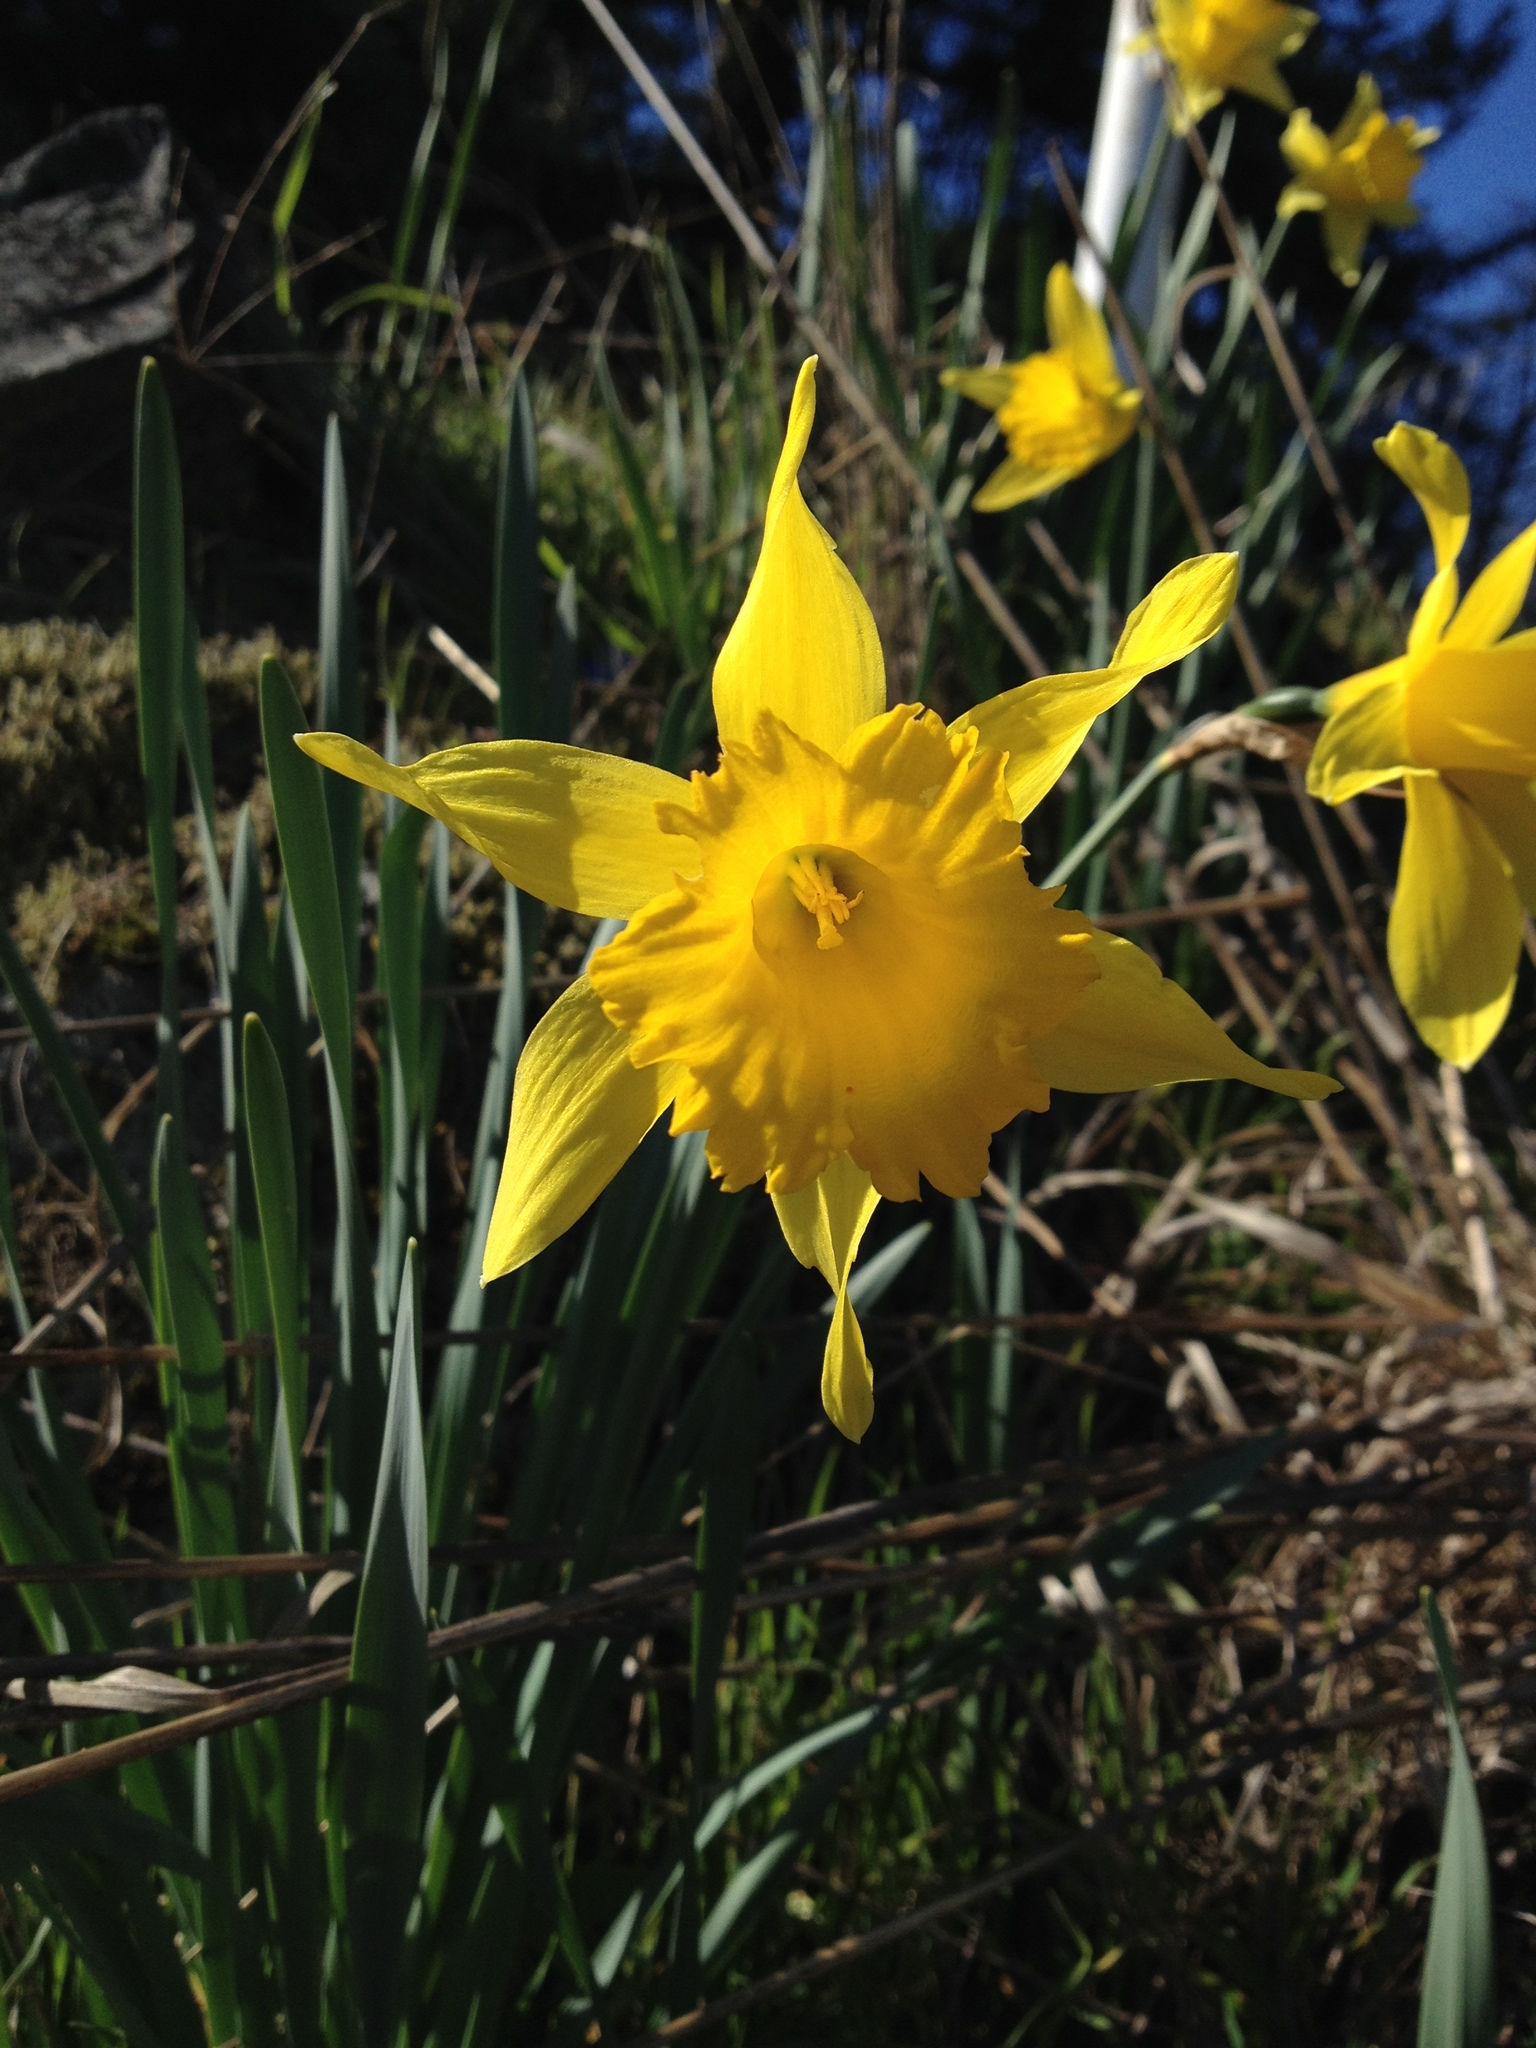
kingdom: Plantae
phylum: Tracheophyta
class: Liliopsida
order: Asparagales
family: Amaryllidaceae
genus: Narcissus
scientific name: Narcissus hispanicus
